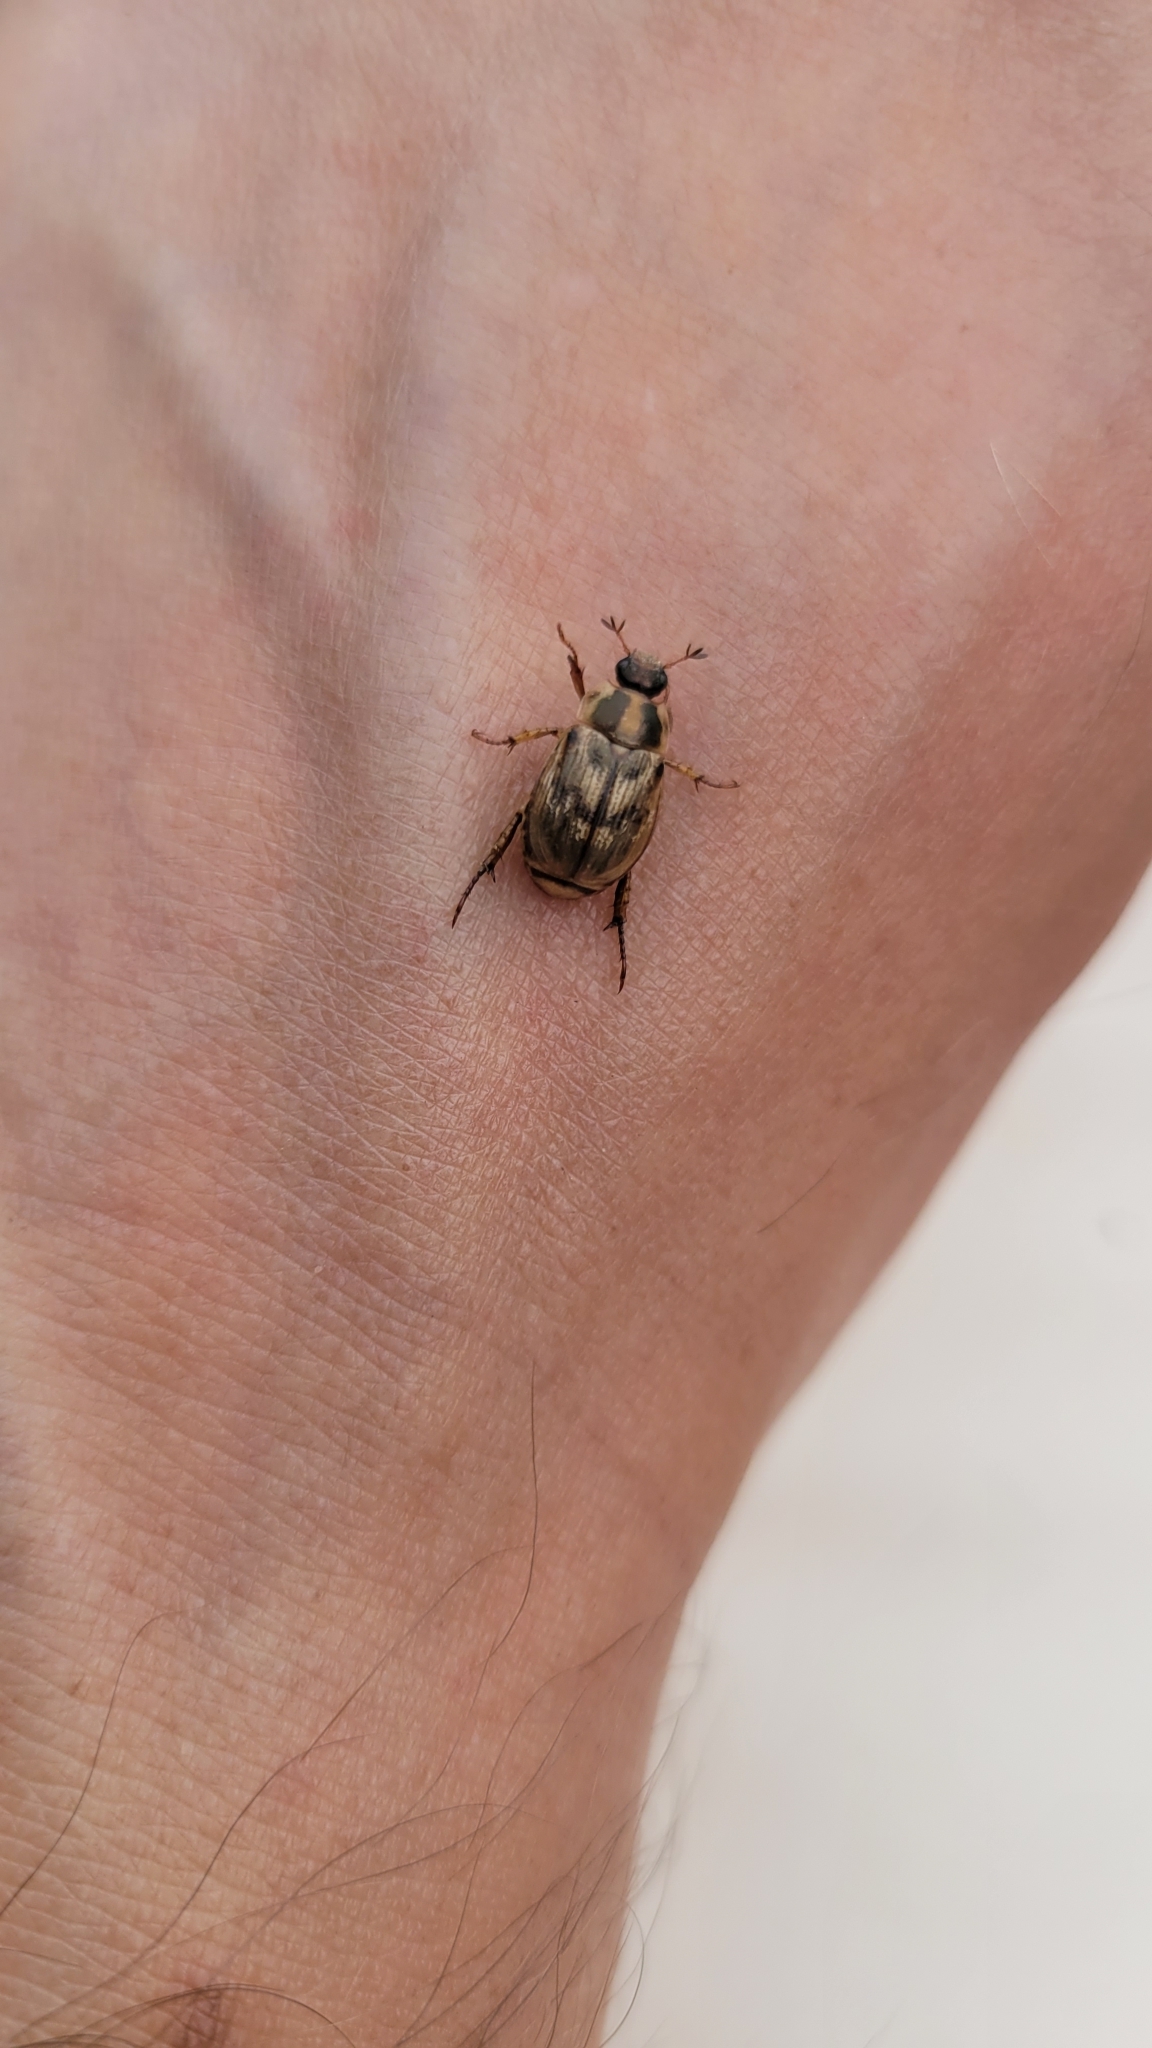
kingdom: Animalia
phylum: Arthropoda
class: Insecta
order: Coleoptera
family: Scarabaeidae
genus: Exomala
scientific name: Exomala orientalis
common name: Oriental beetle
